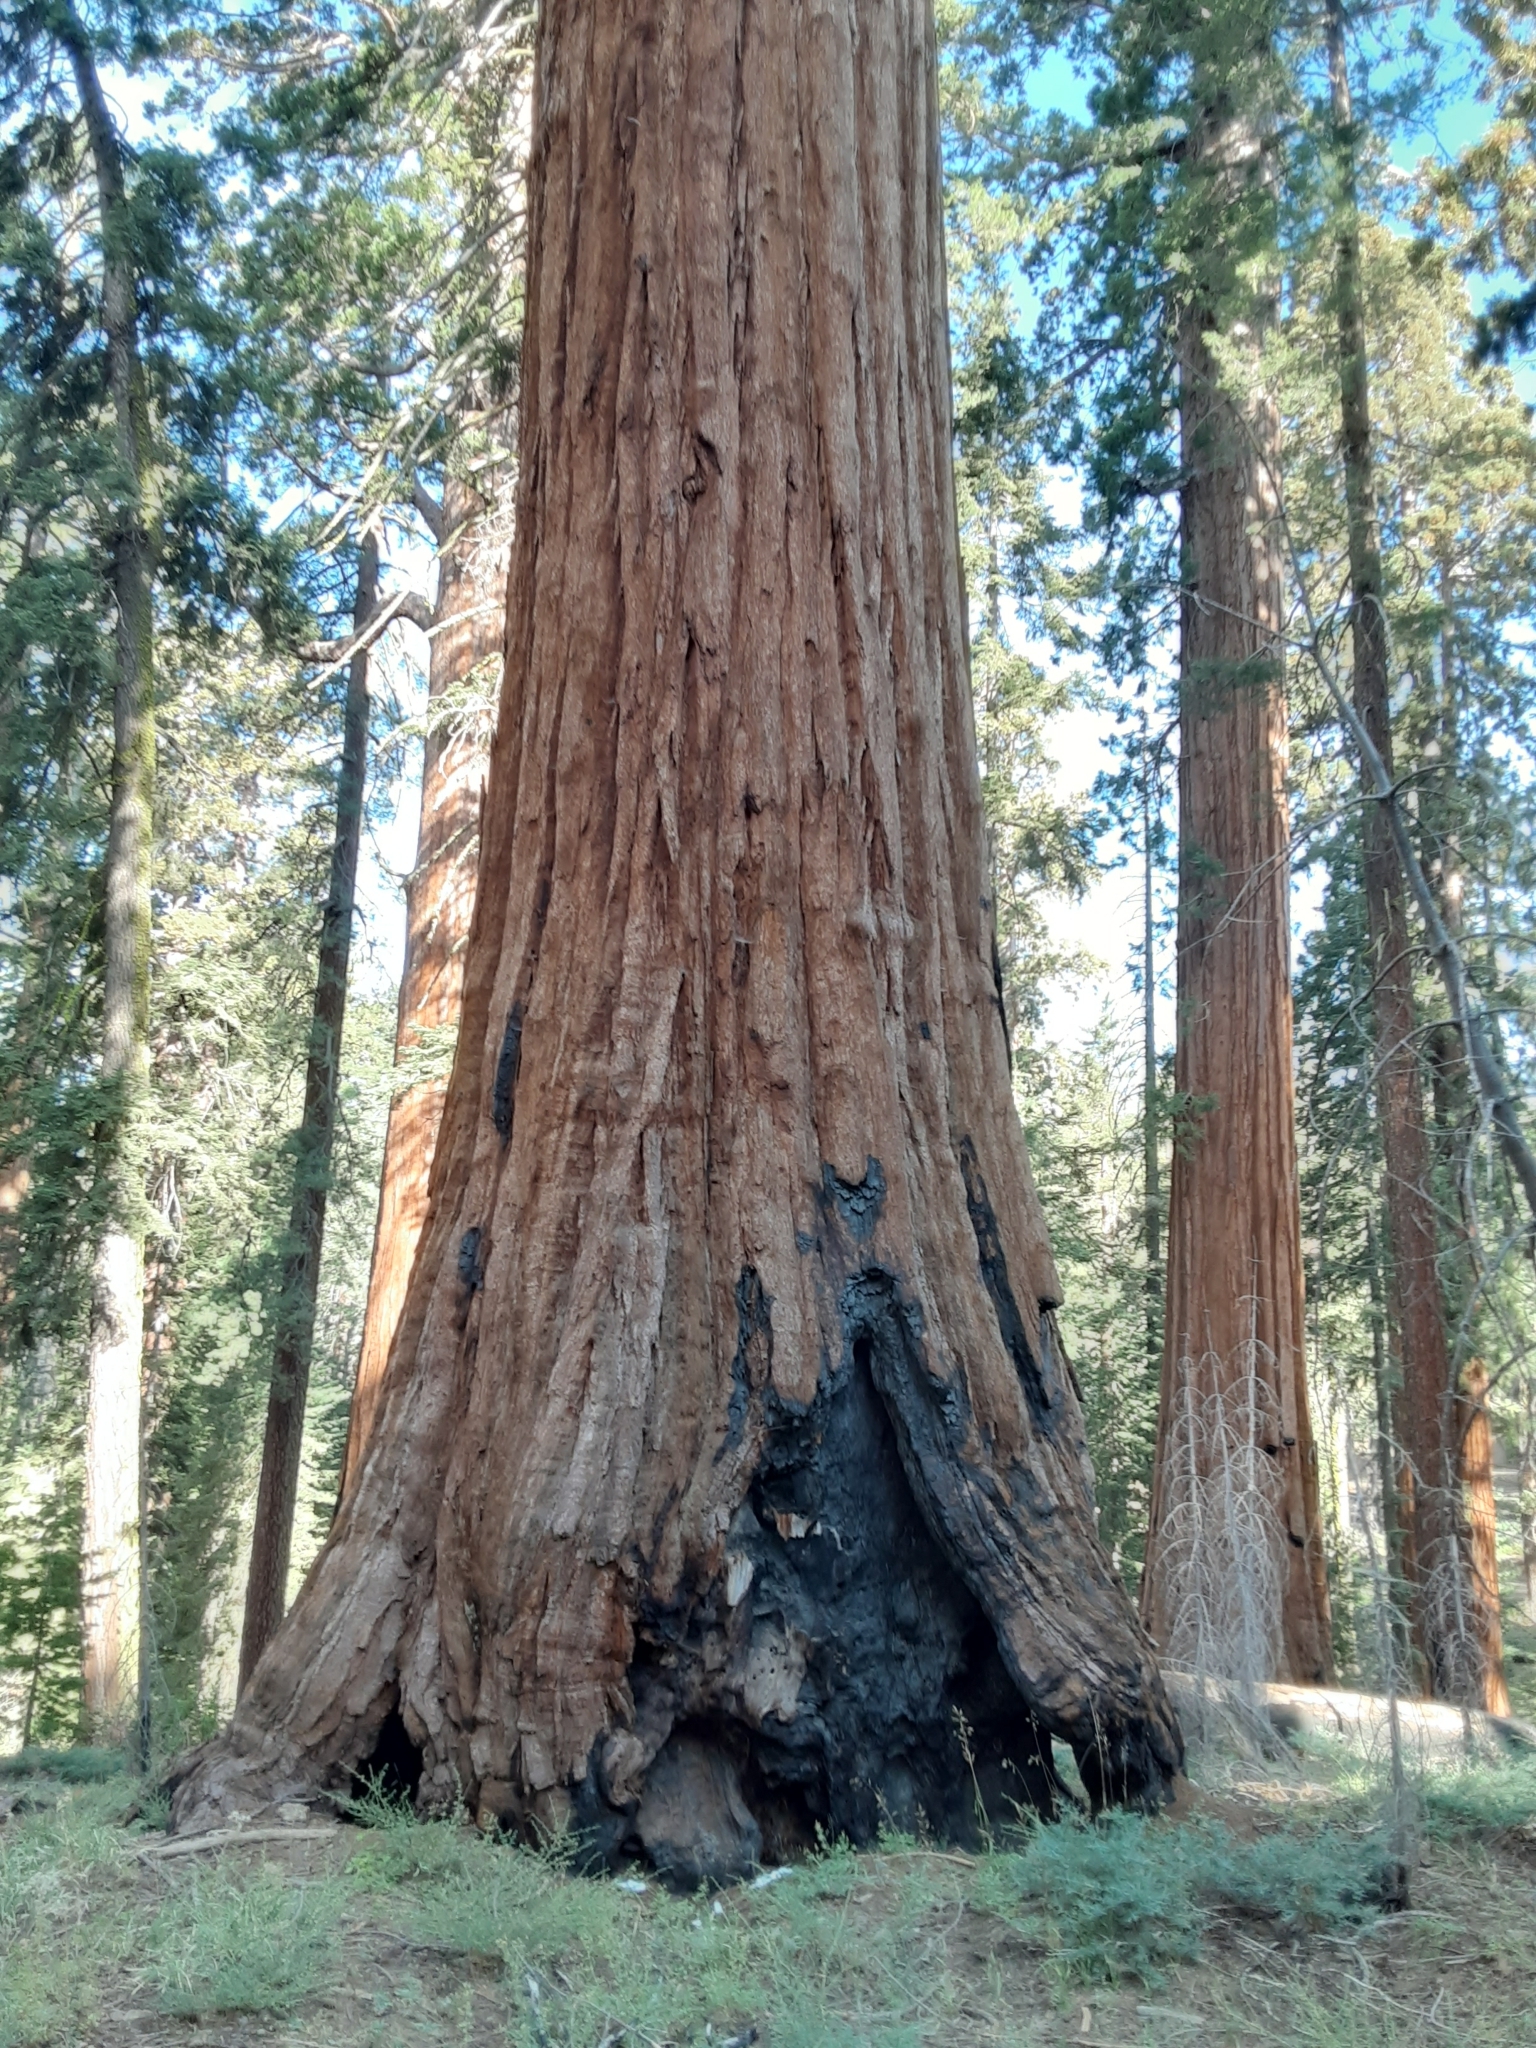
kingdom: Plantae
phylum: Tracheophyta
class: Pinopsida
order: Pinales
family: Cupressaceae
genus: Sequoiadendron
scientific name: Sequoiadendron giganteum
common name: Wellingtonia
